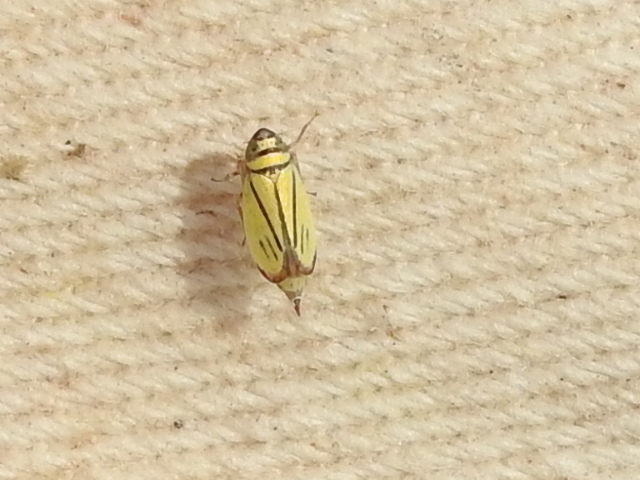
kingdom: Animalia
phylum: Arthropoda
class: Insecta
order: Hemiptera
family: Cicadellidae
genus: Stirellus
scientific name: Stirellus bicolor
